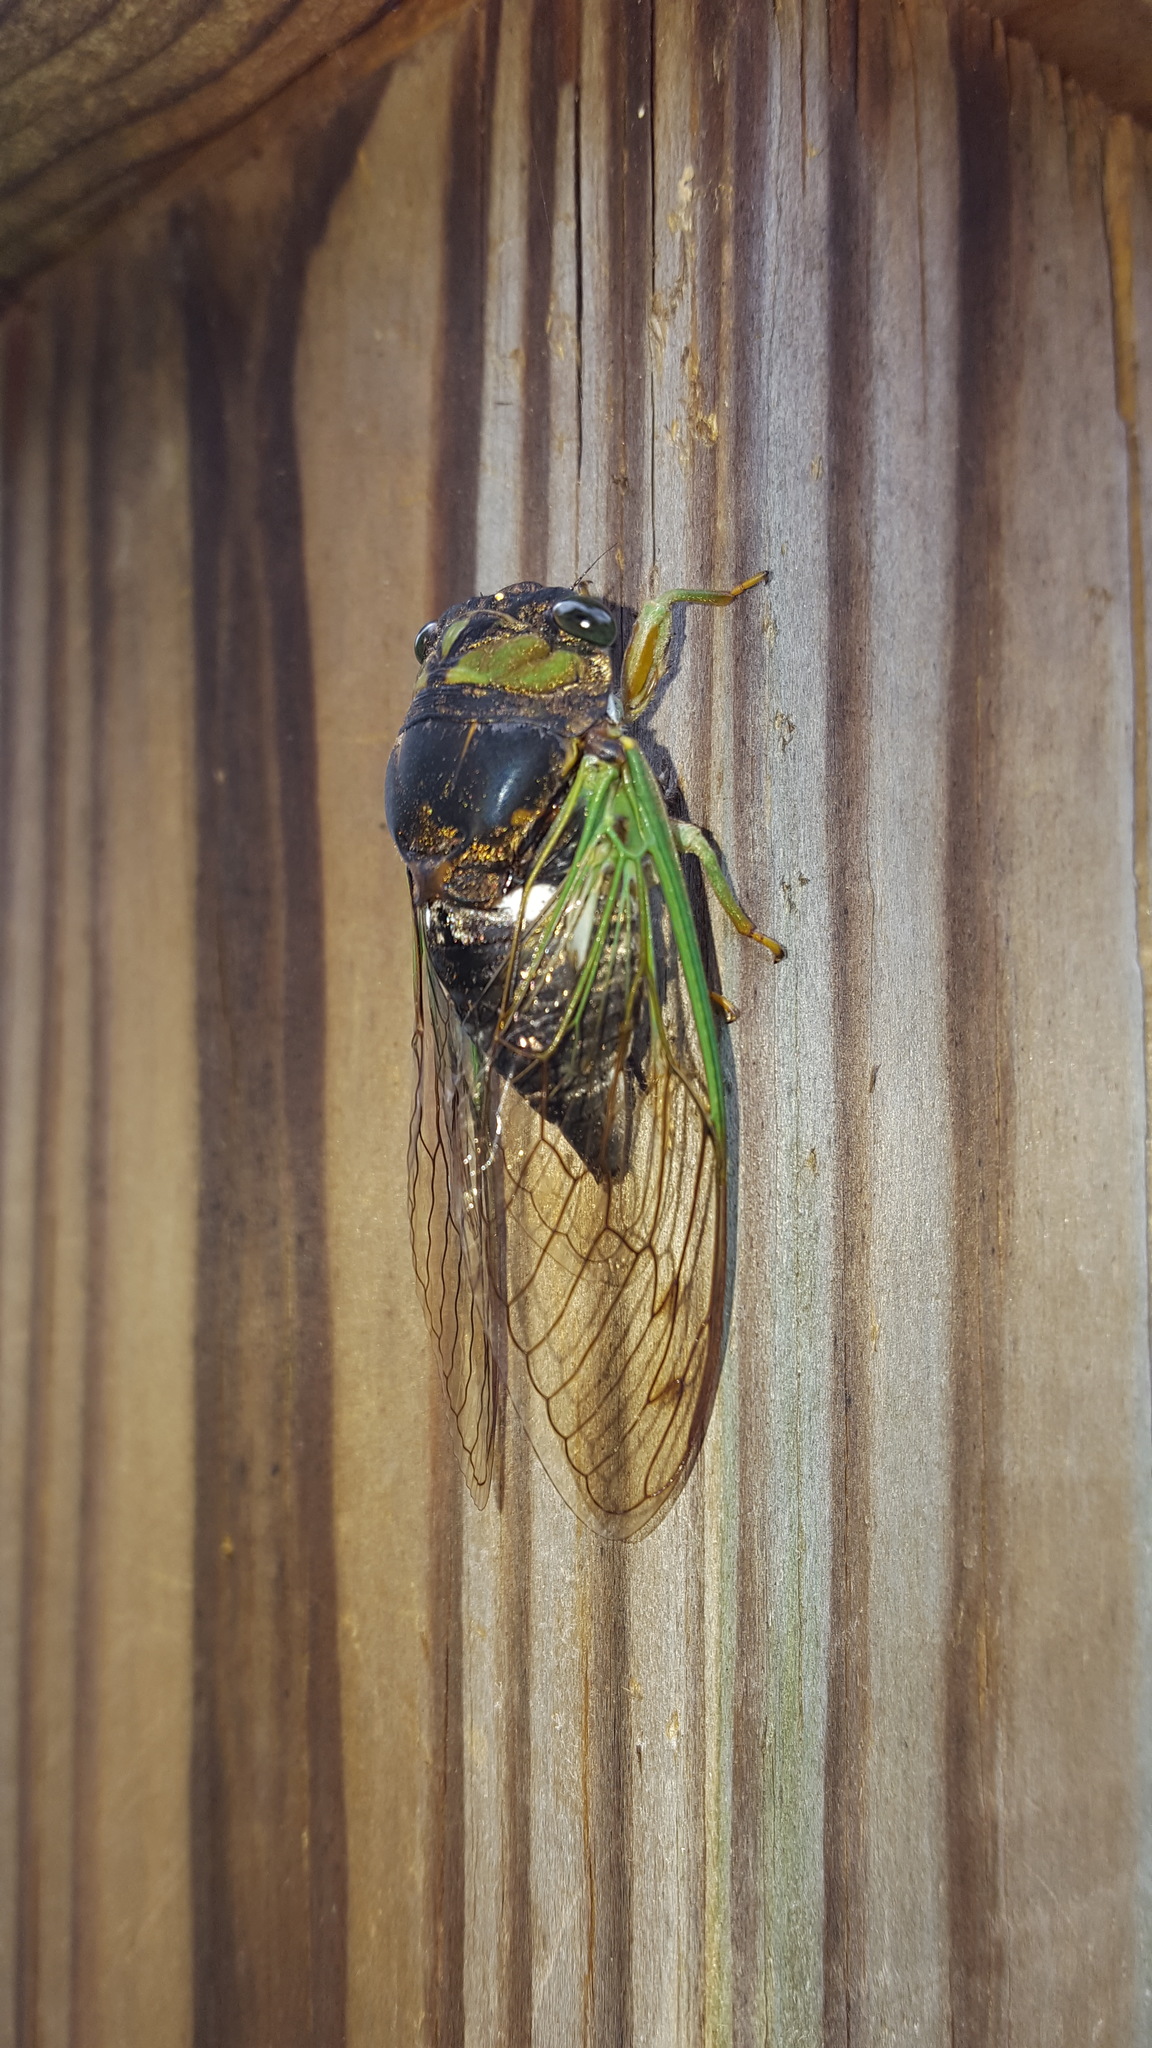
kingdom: Animalia
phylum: Arthropoda
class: Insecta
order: Hemiptera
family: Cicadidae
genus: Neotibicen
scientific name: Neotibicen tibicen
